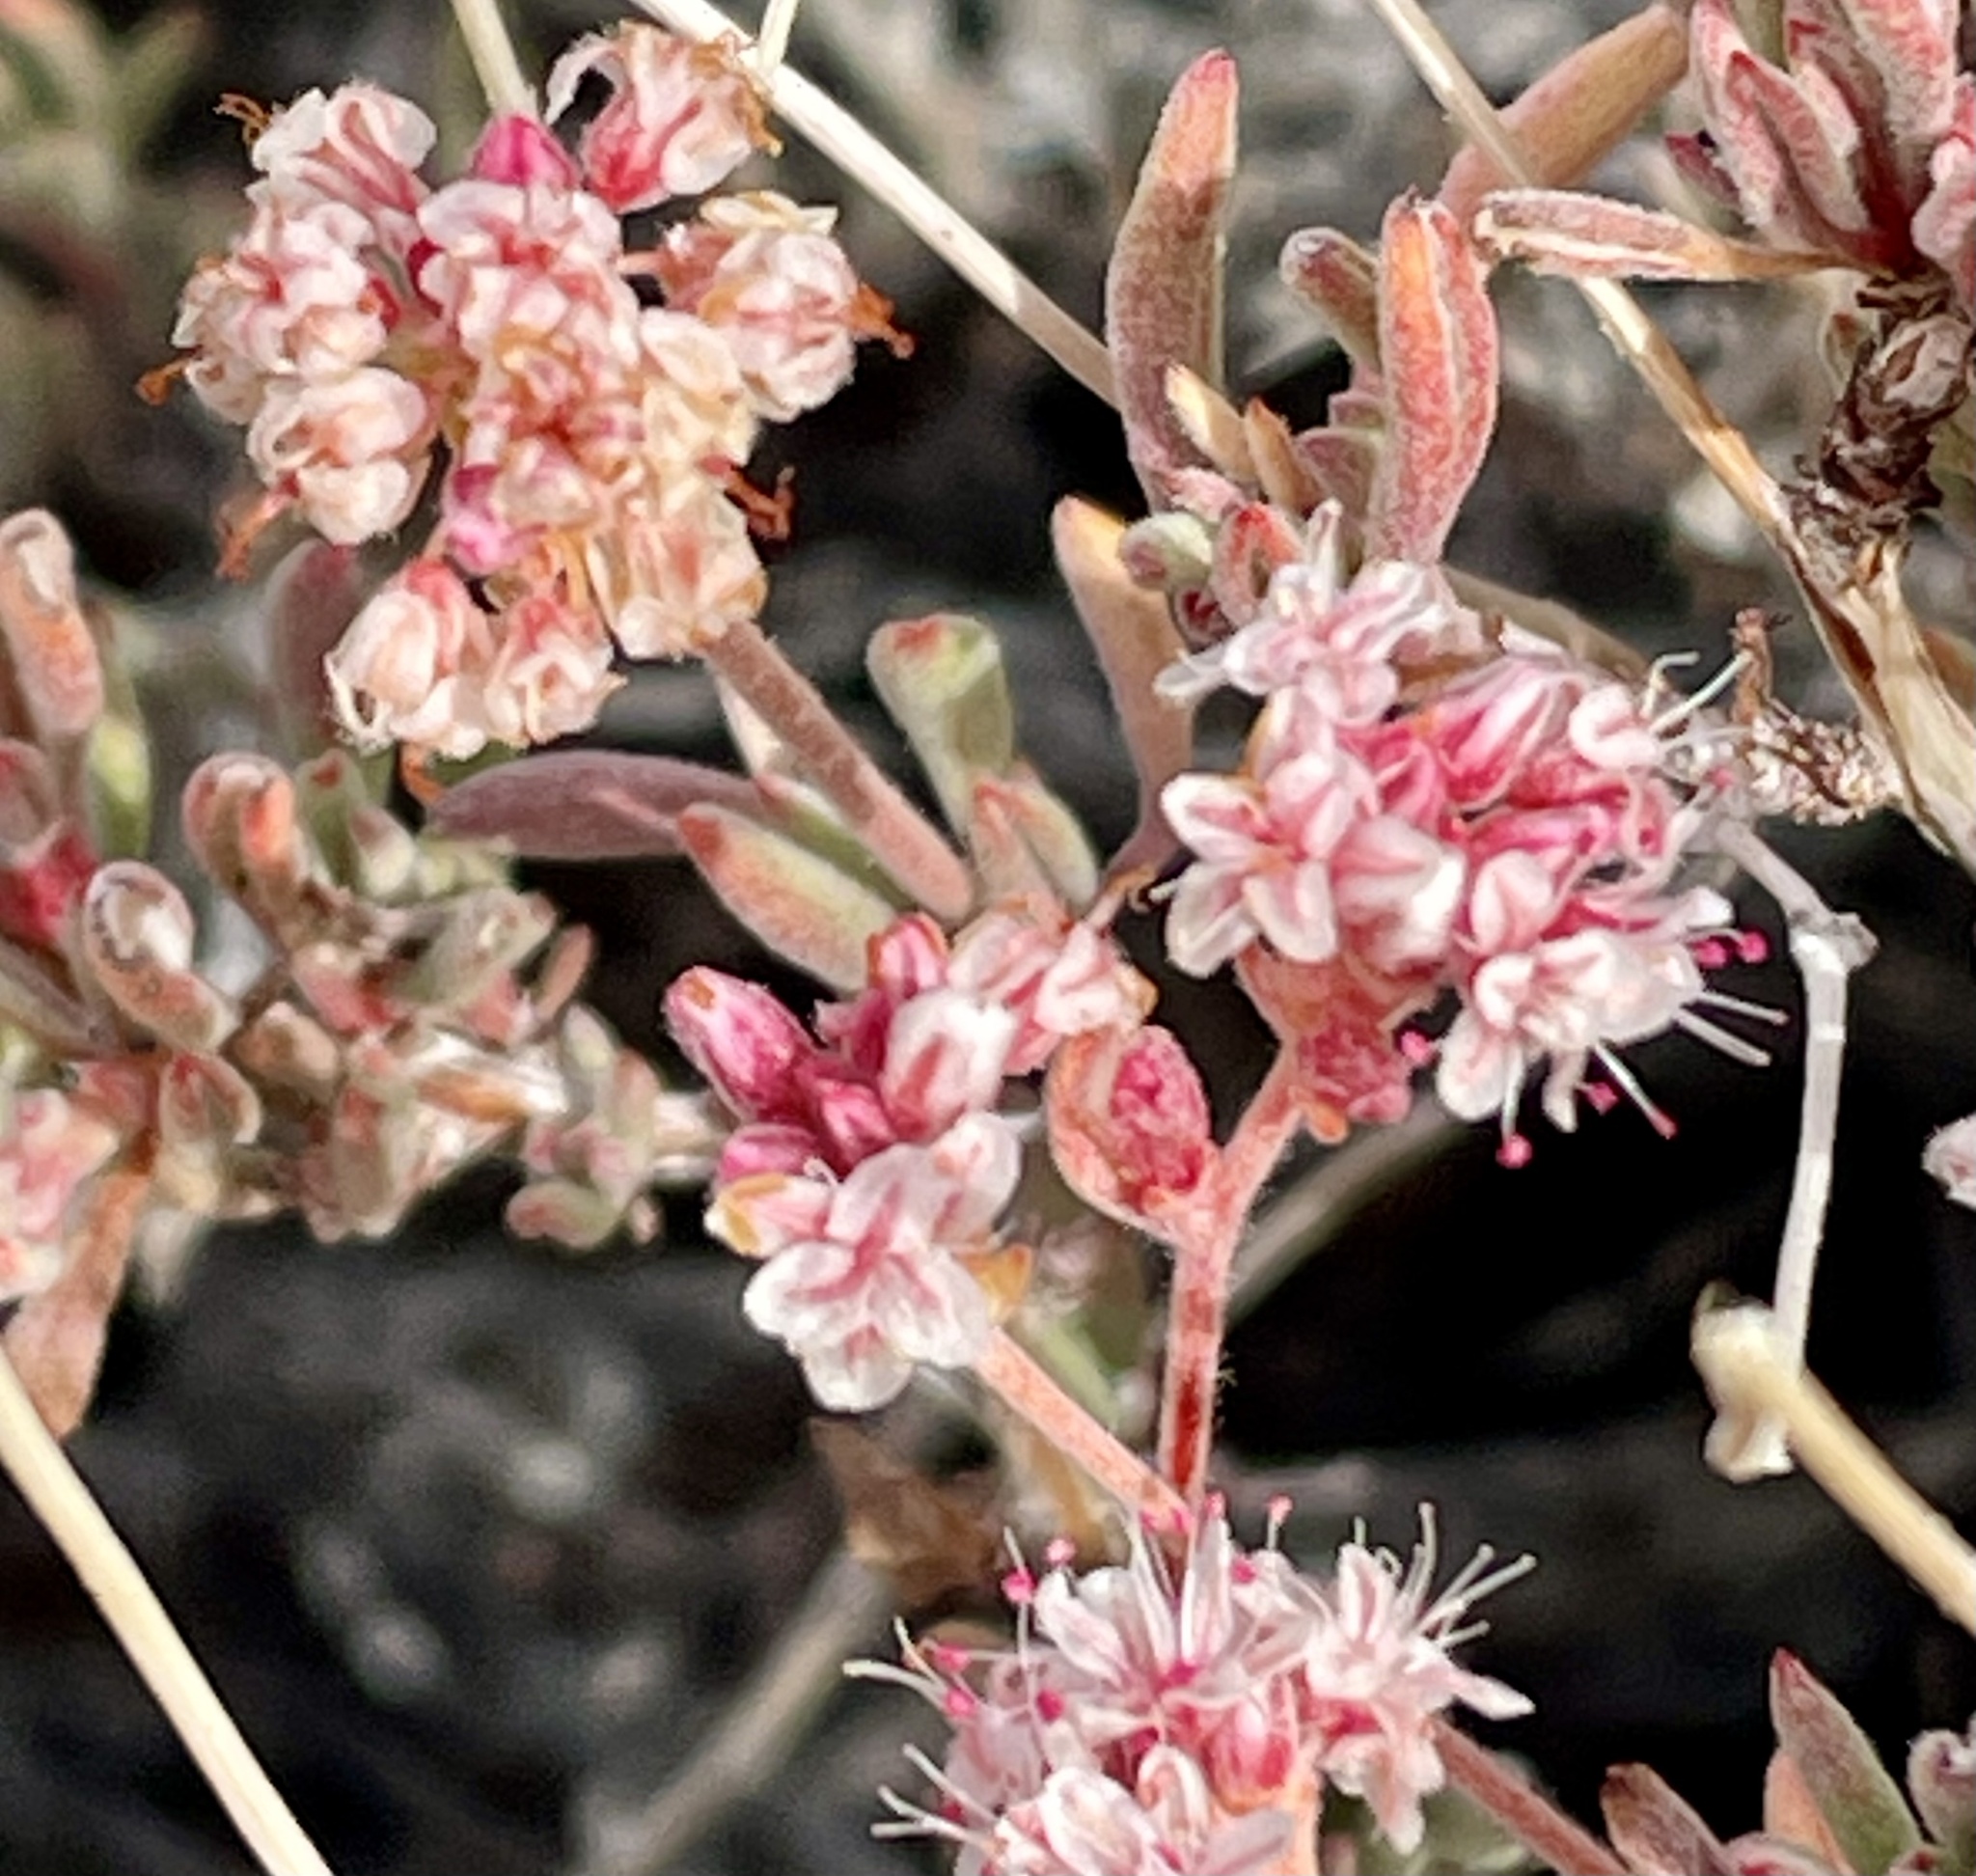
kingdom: Plantae
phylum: Tracheophyta
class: Magnoliopsida
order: Caryophyllales
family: Polygonaceae
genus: Eriogonum
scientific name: Eriogonum fasciculatum
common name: California wild buckwheat
